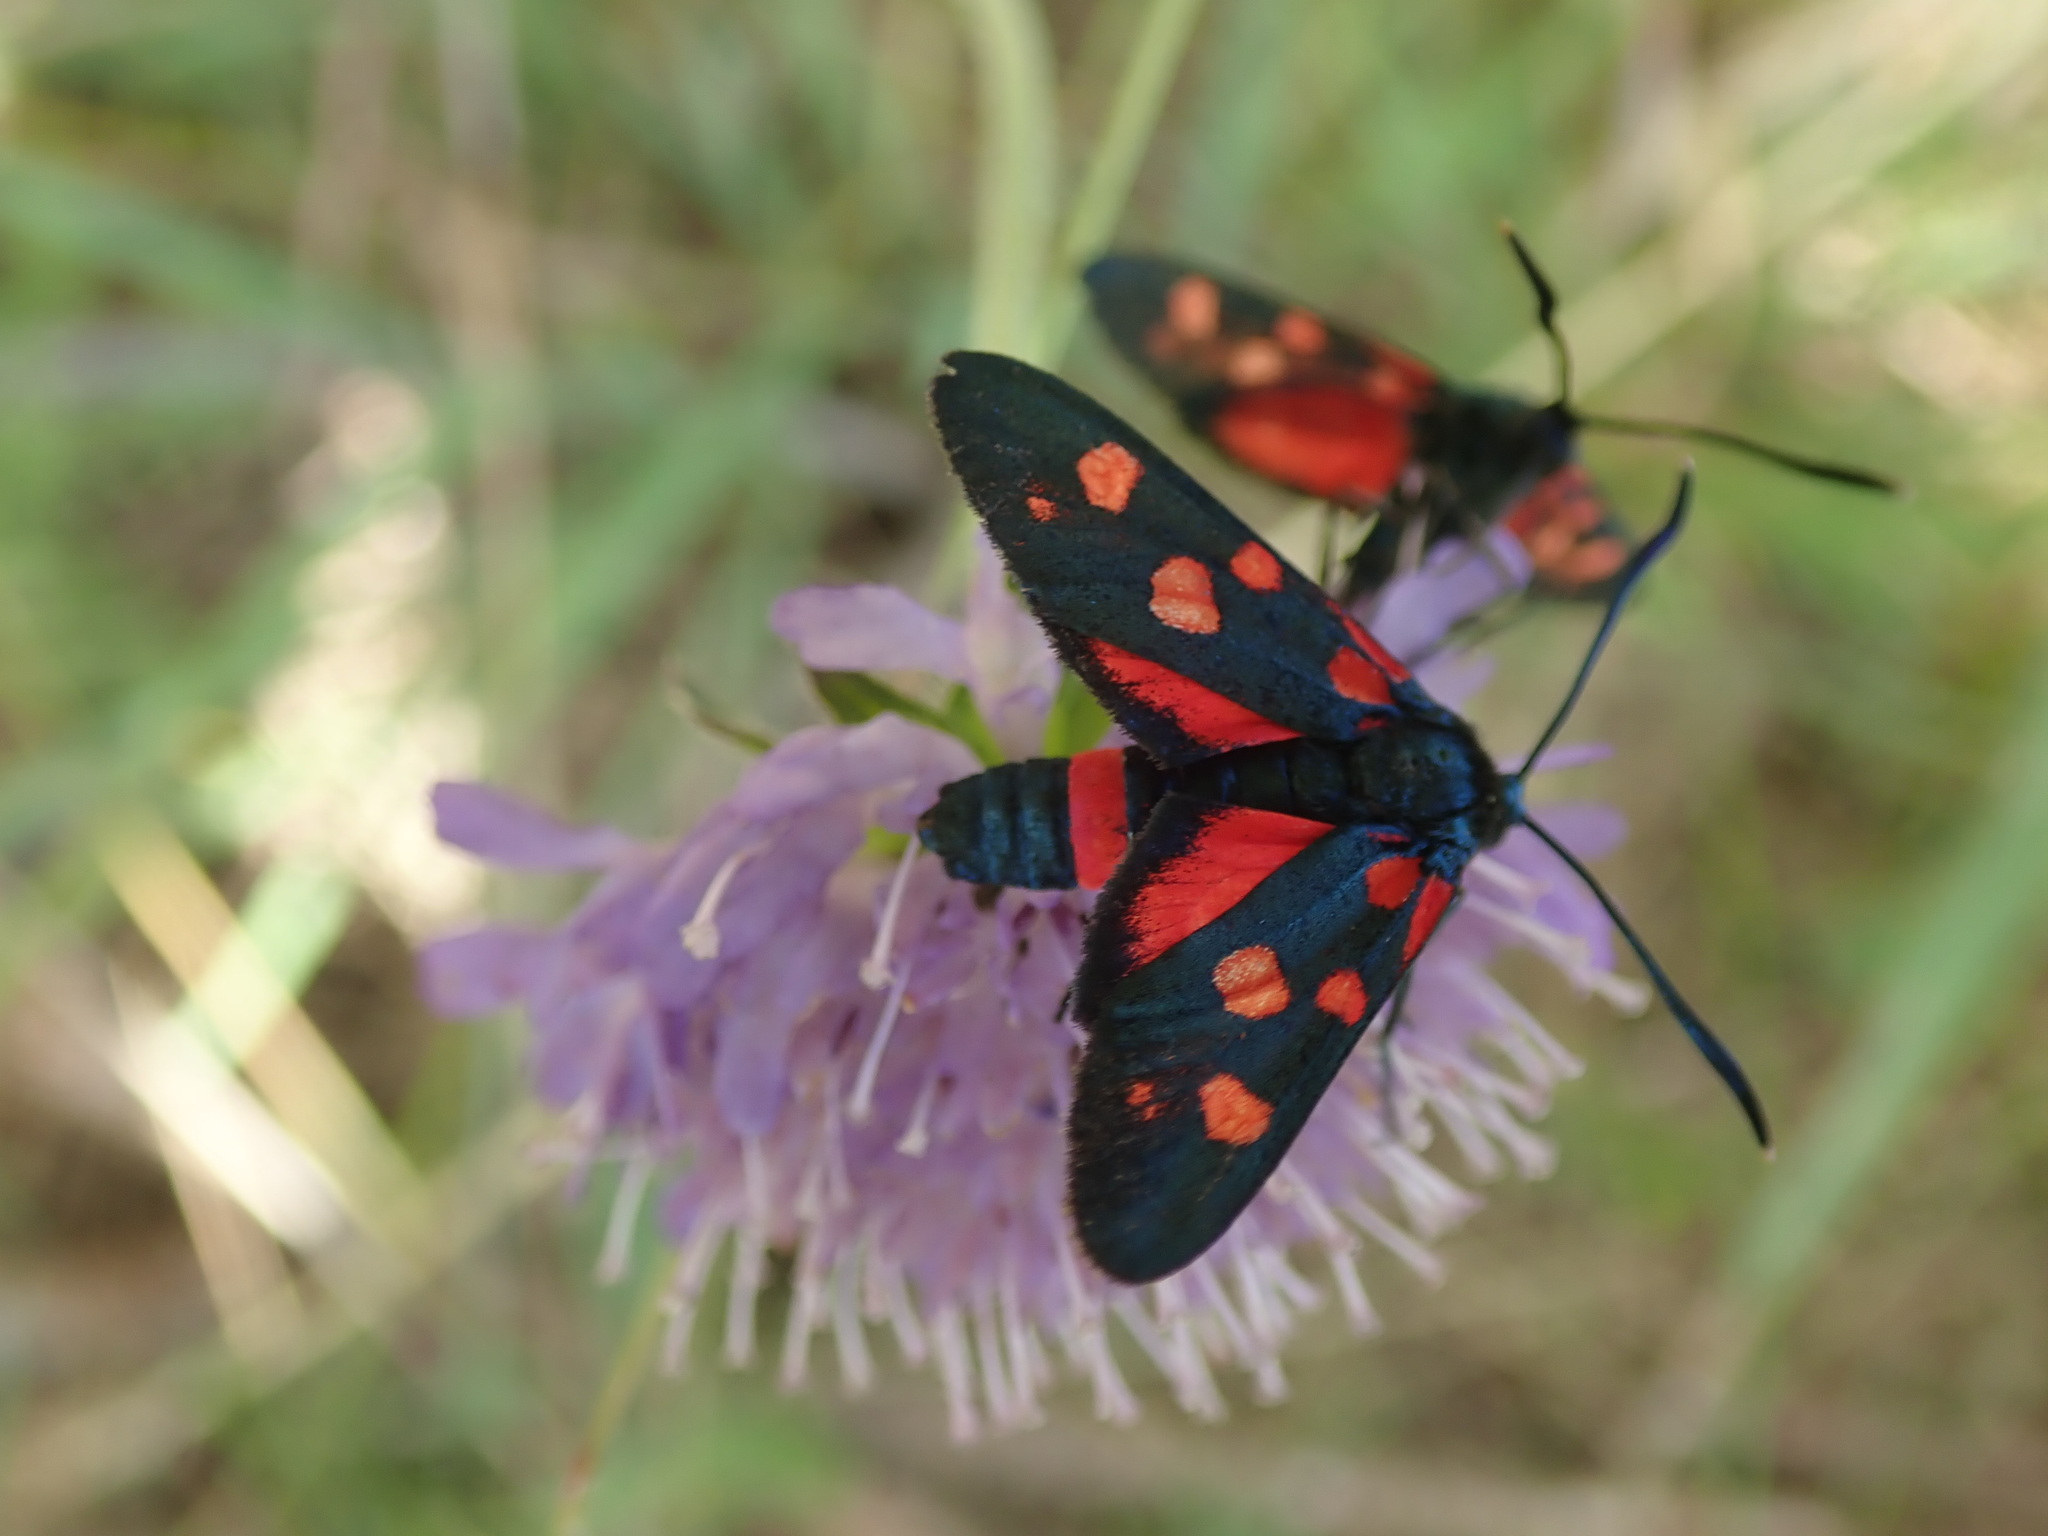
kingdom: Animalia
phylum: Arthropoda
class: Insecta
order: Lepidoptera
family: Zygaenidae
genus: Zygaena
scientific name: Zygaena ephialtes
